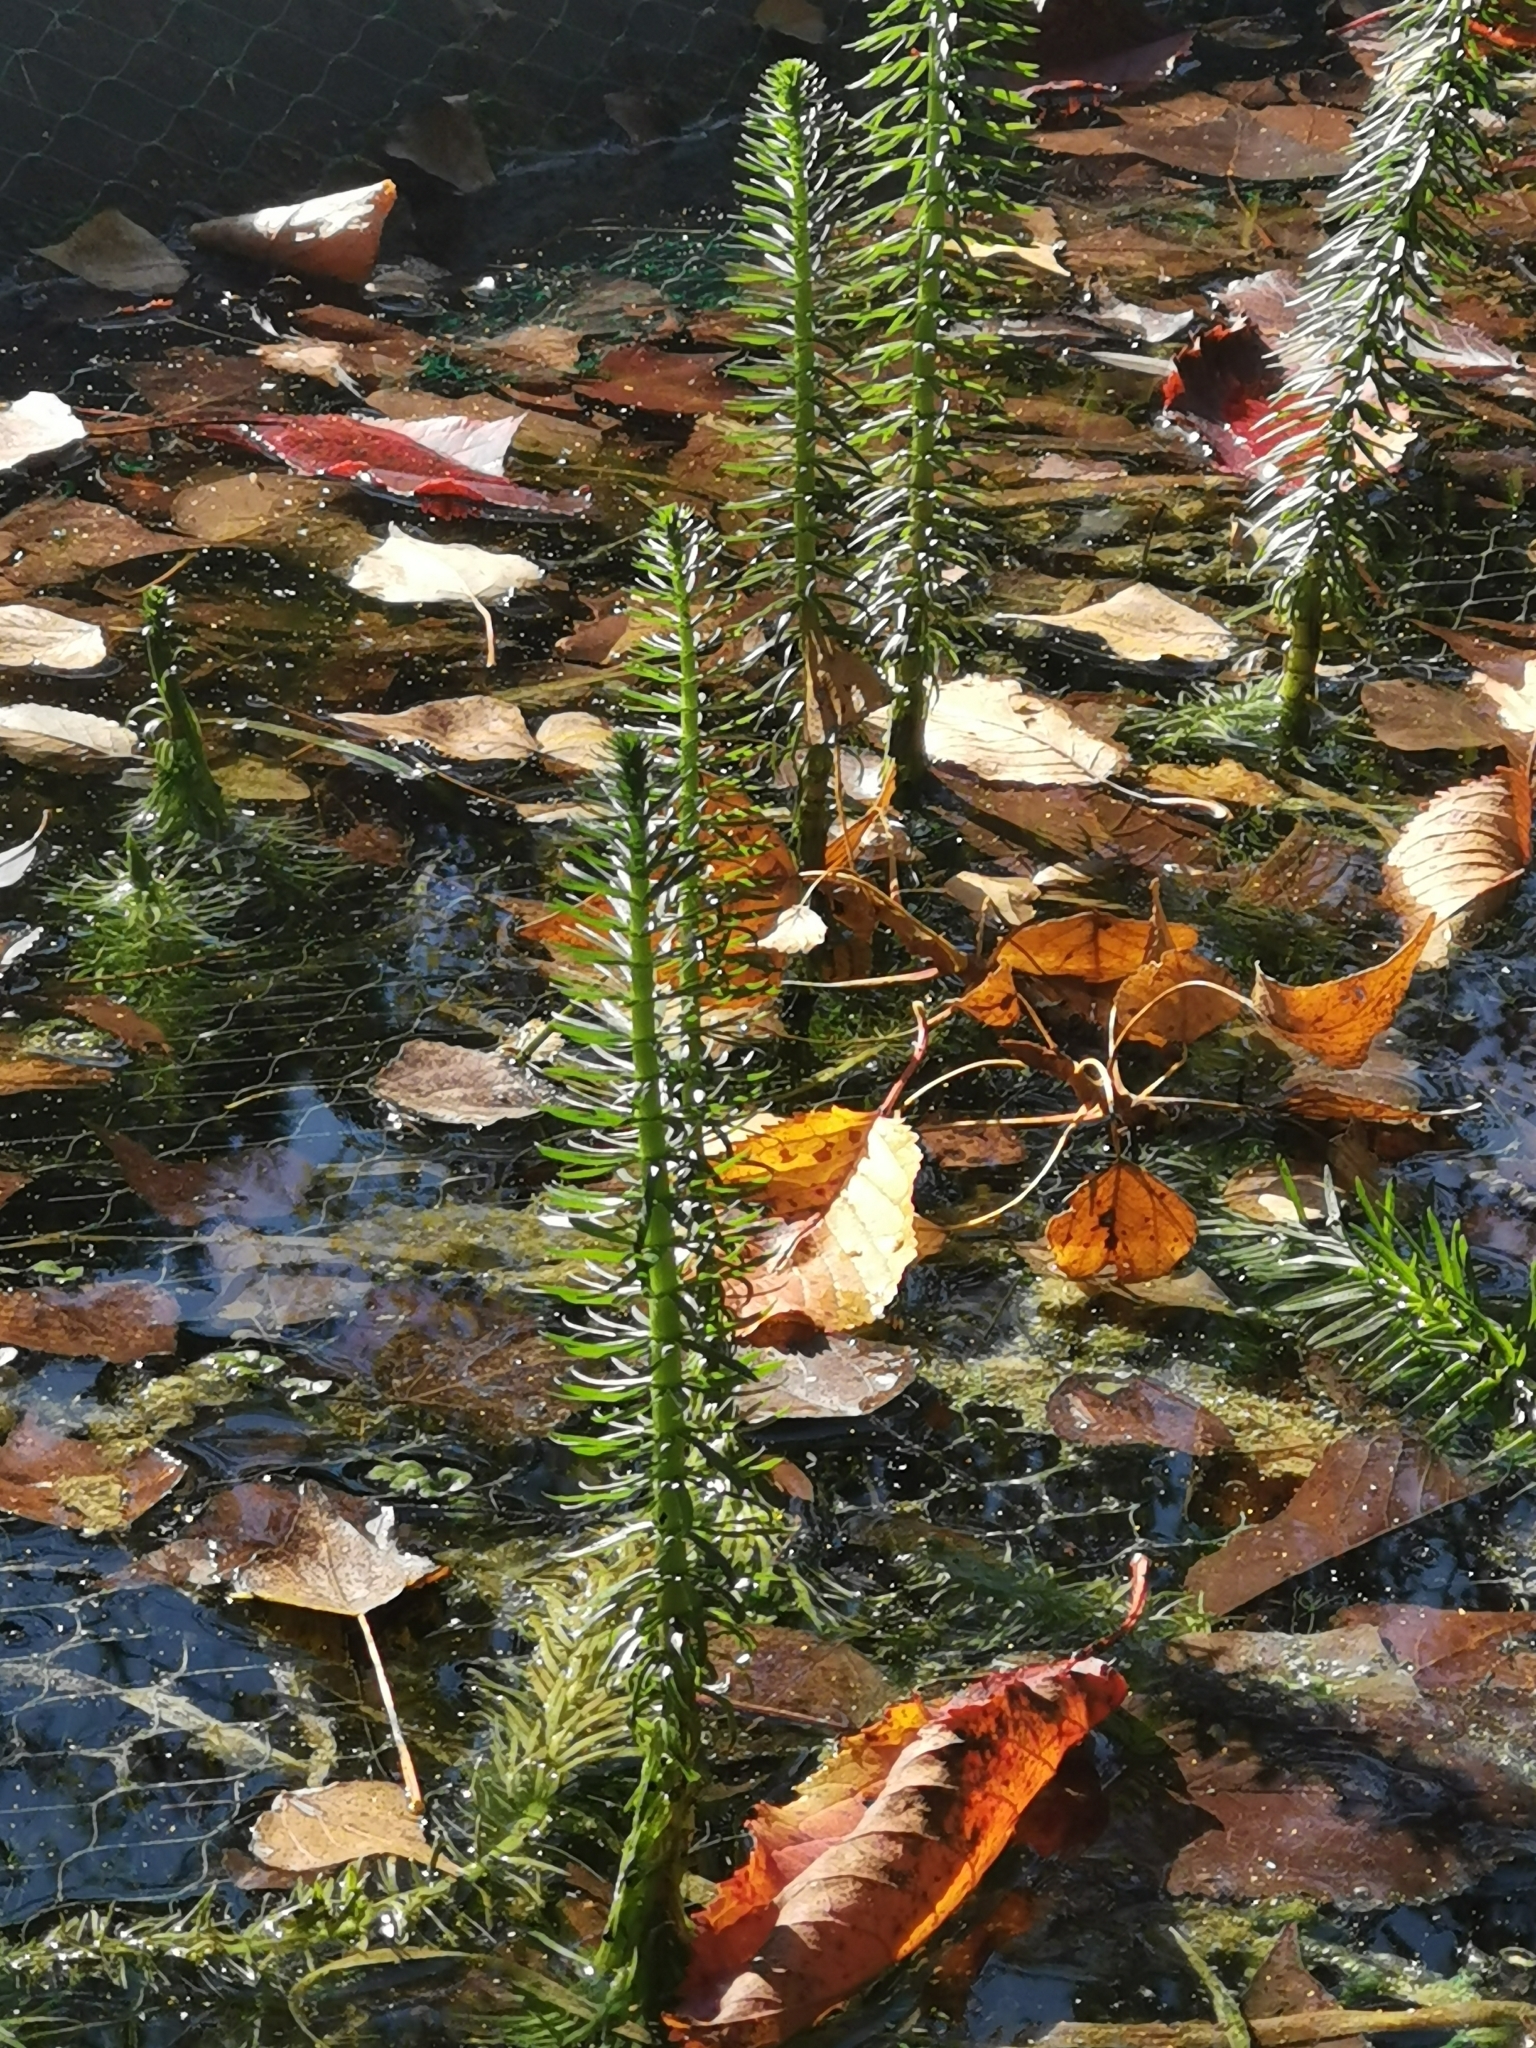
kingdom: Plantae
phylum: Tracheophyta
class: Magnoliopsida
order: Lamiales
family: Plantaginaceae
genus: Hippuris
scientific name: Hippuris vulgaris
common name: Mare's-tail
